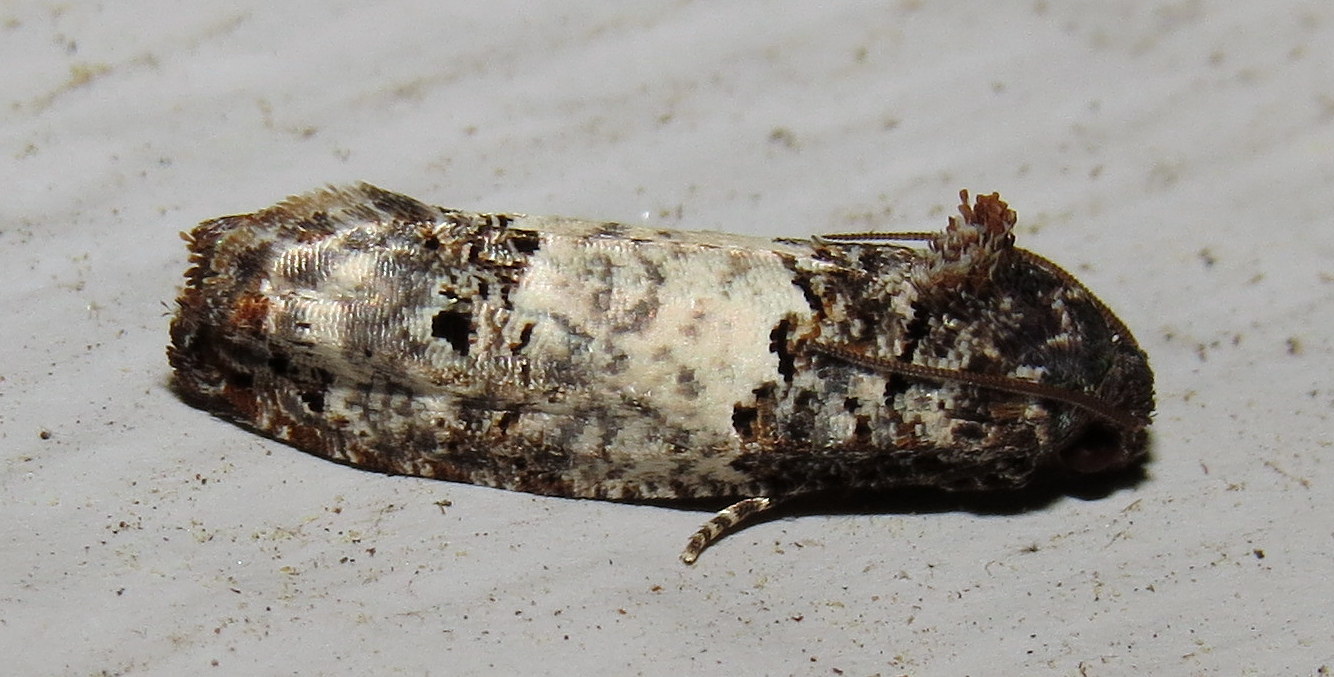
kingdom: Animalia
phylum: Arthropoda
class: Insecta
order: Lepidoptera
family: Tortricidae
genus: Epiblema
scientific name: Epiblema carolinana
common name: Gray-blotched epiblema moth
